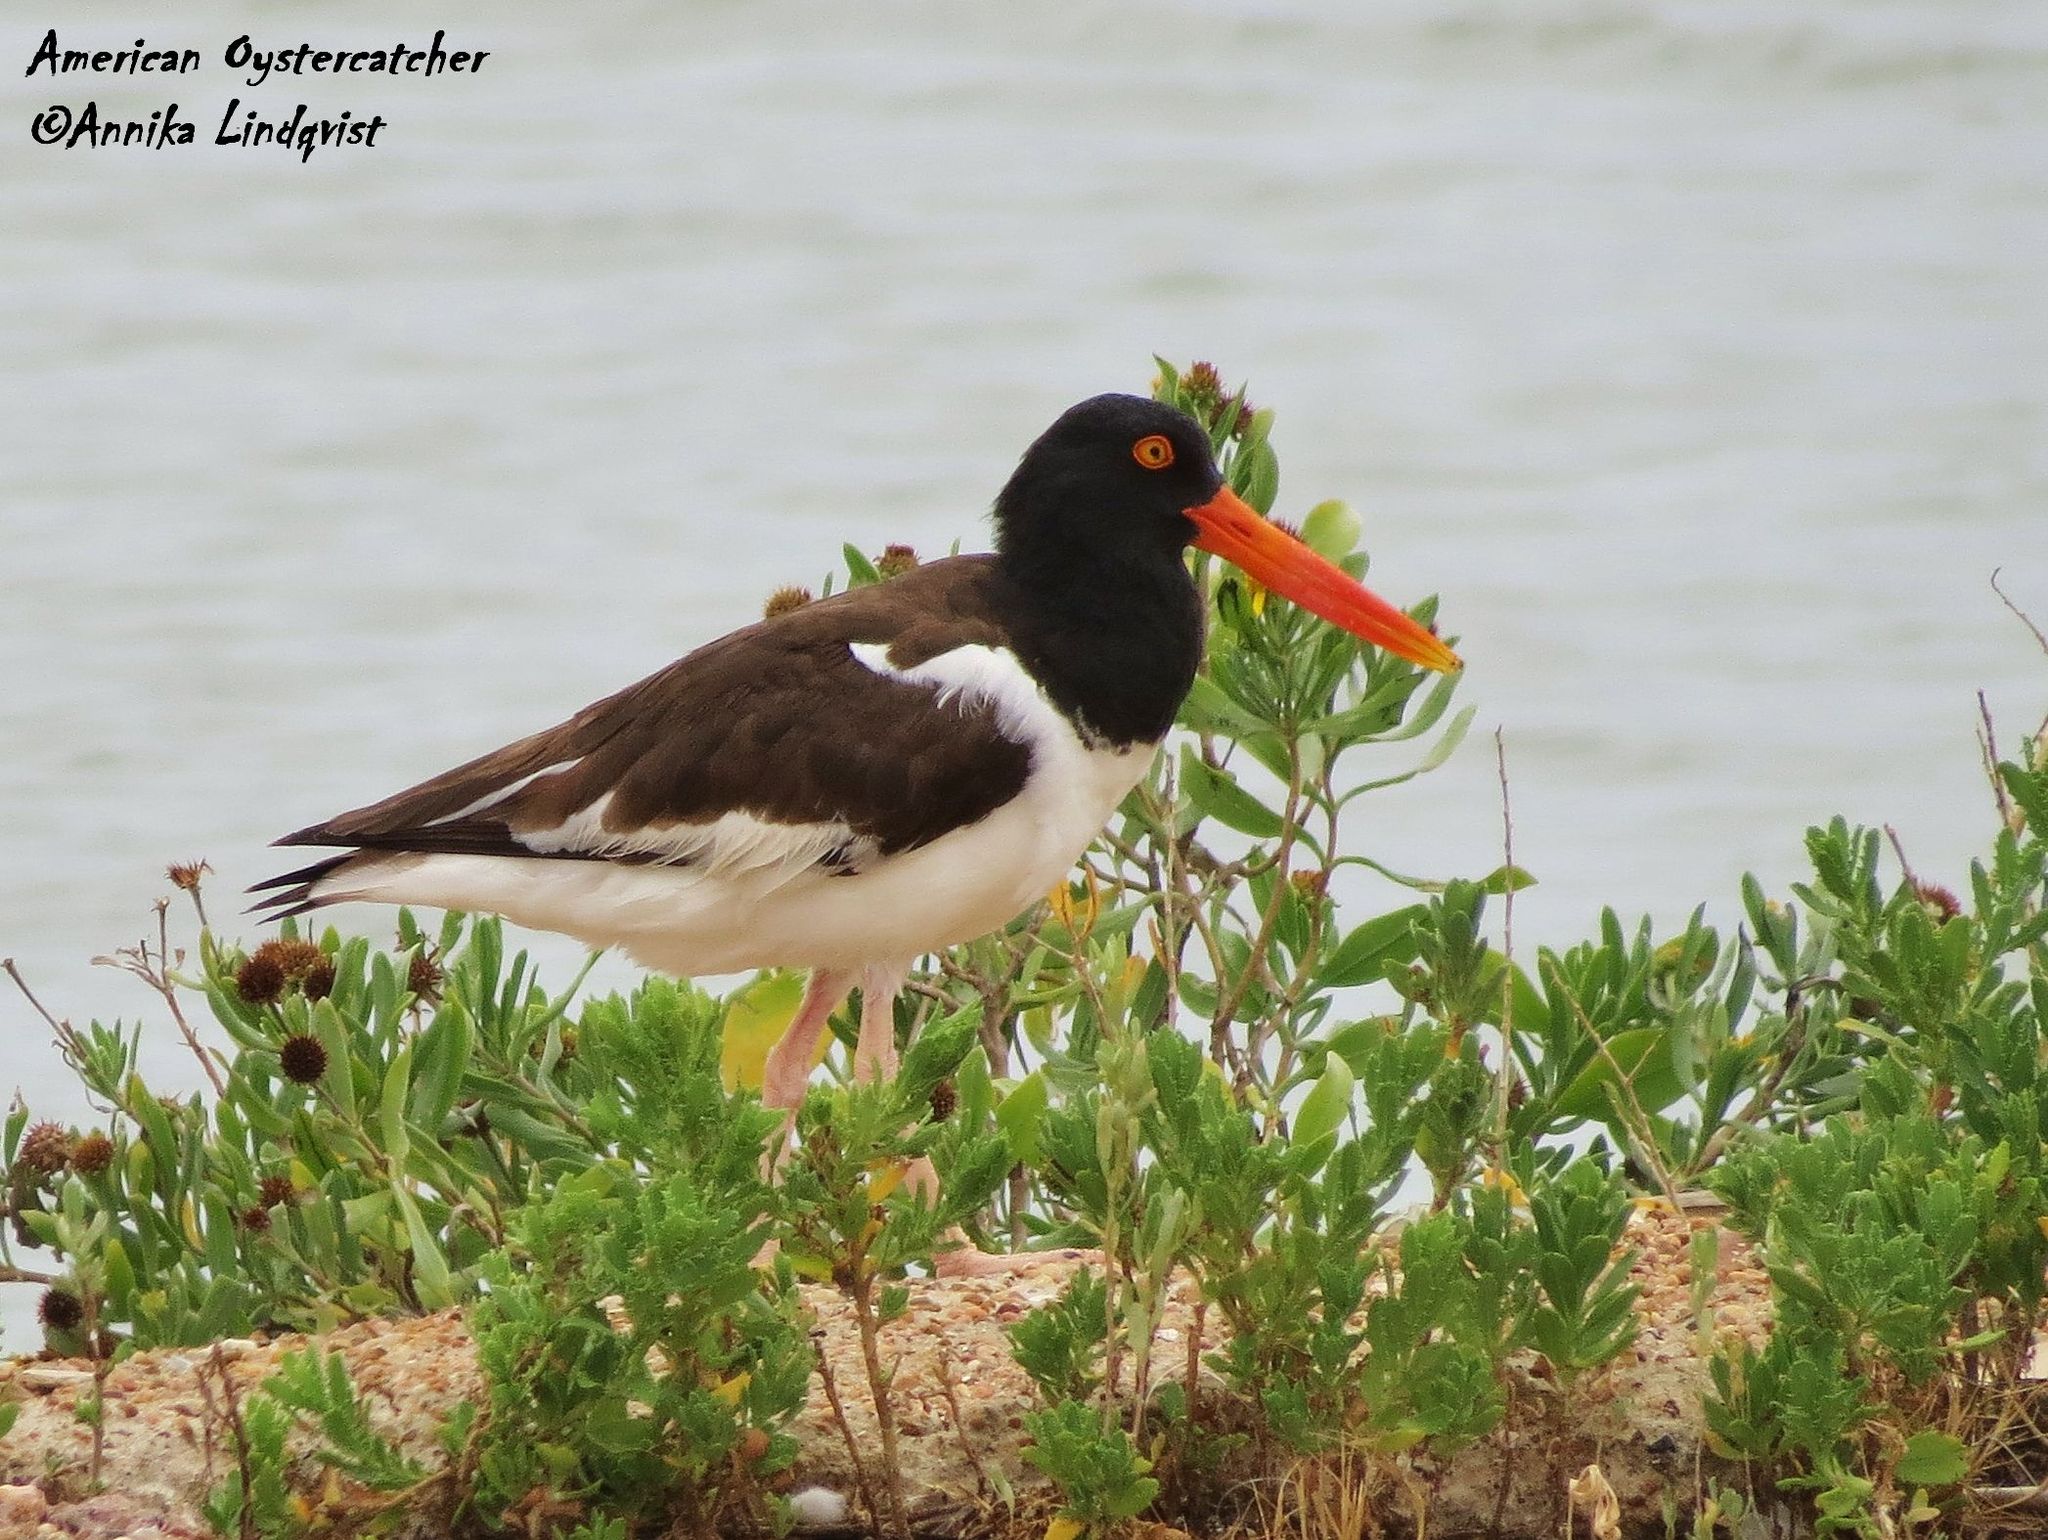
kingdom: Animalia
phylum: Chordata
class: Aves
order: Charadriiformes
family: Haematopodidae
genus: Haematopus
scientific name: Haematopus palliatus
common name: American oystercatcher
